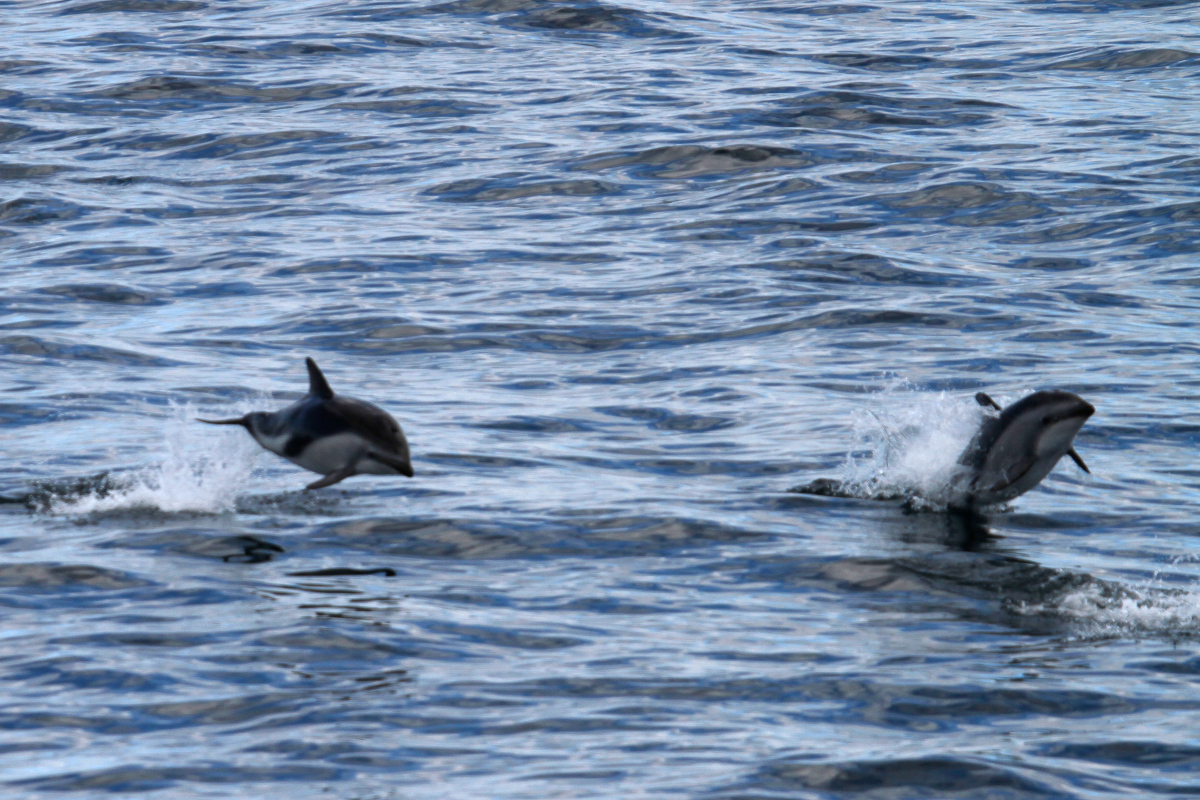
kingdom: Animalia
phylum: Chordata
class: Mammalia
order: Cetacea
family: Delphinidae
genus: Lagenorhynchus
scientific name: Lagenorhynchus obscurus
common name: Dusky dolphin
